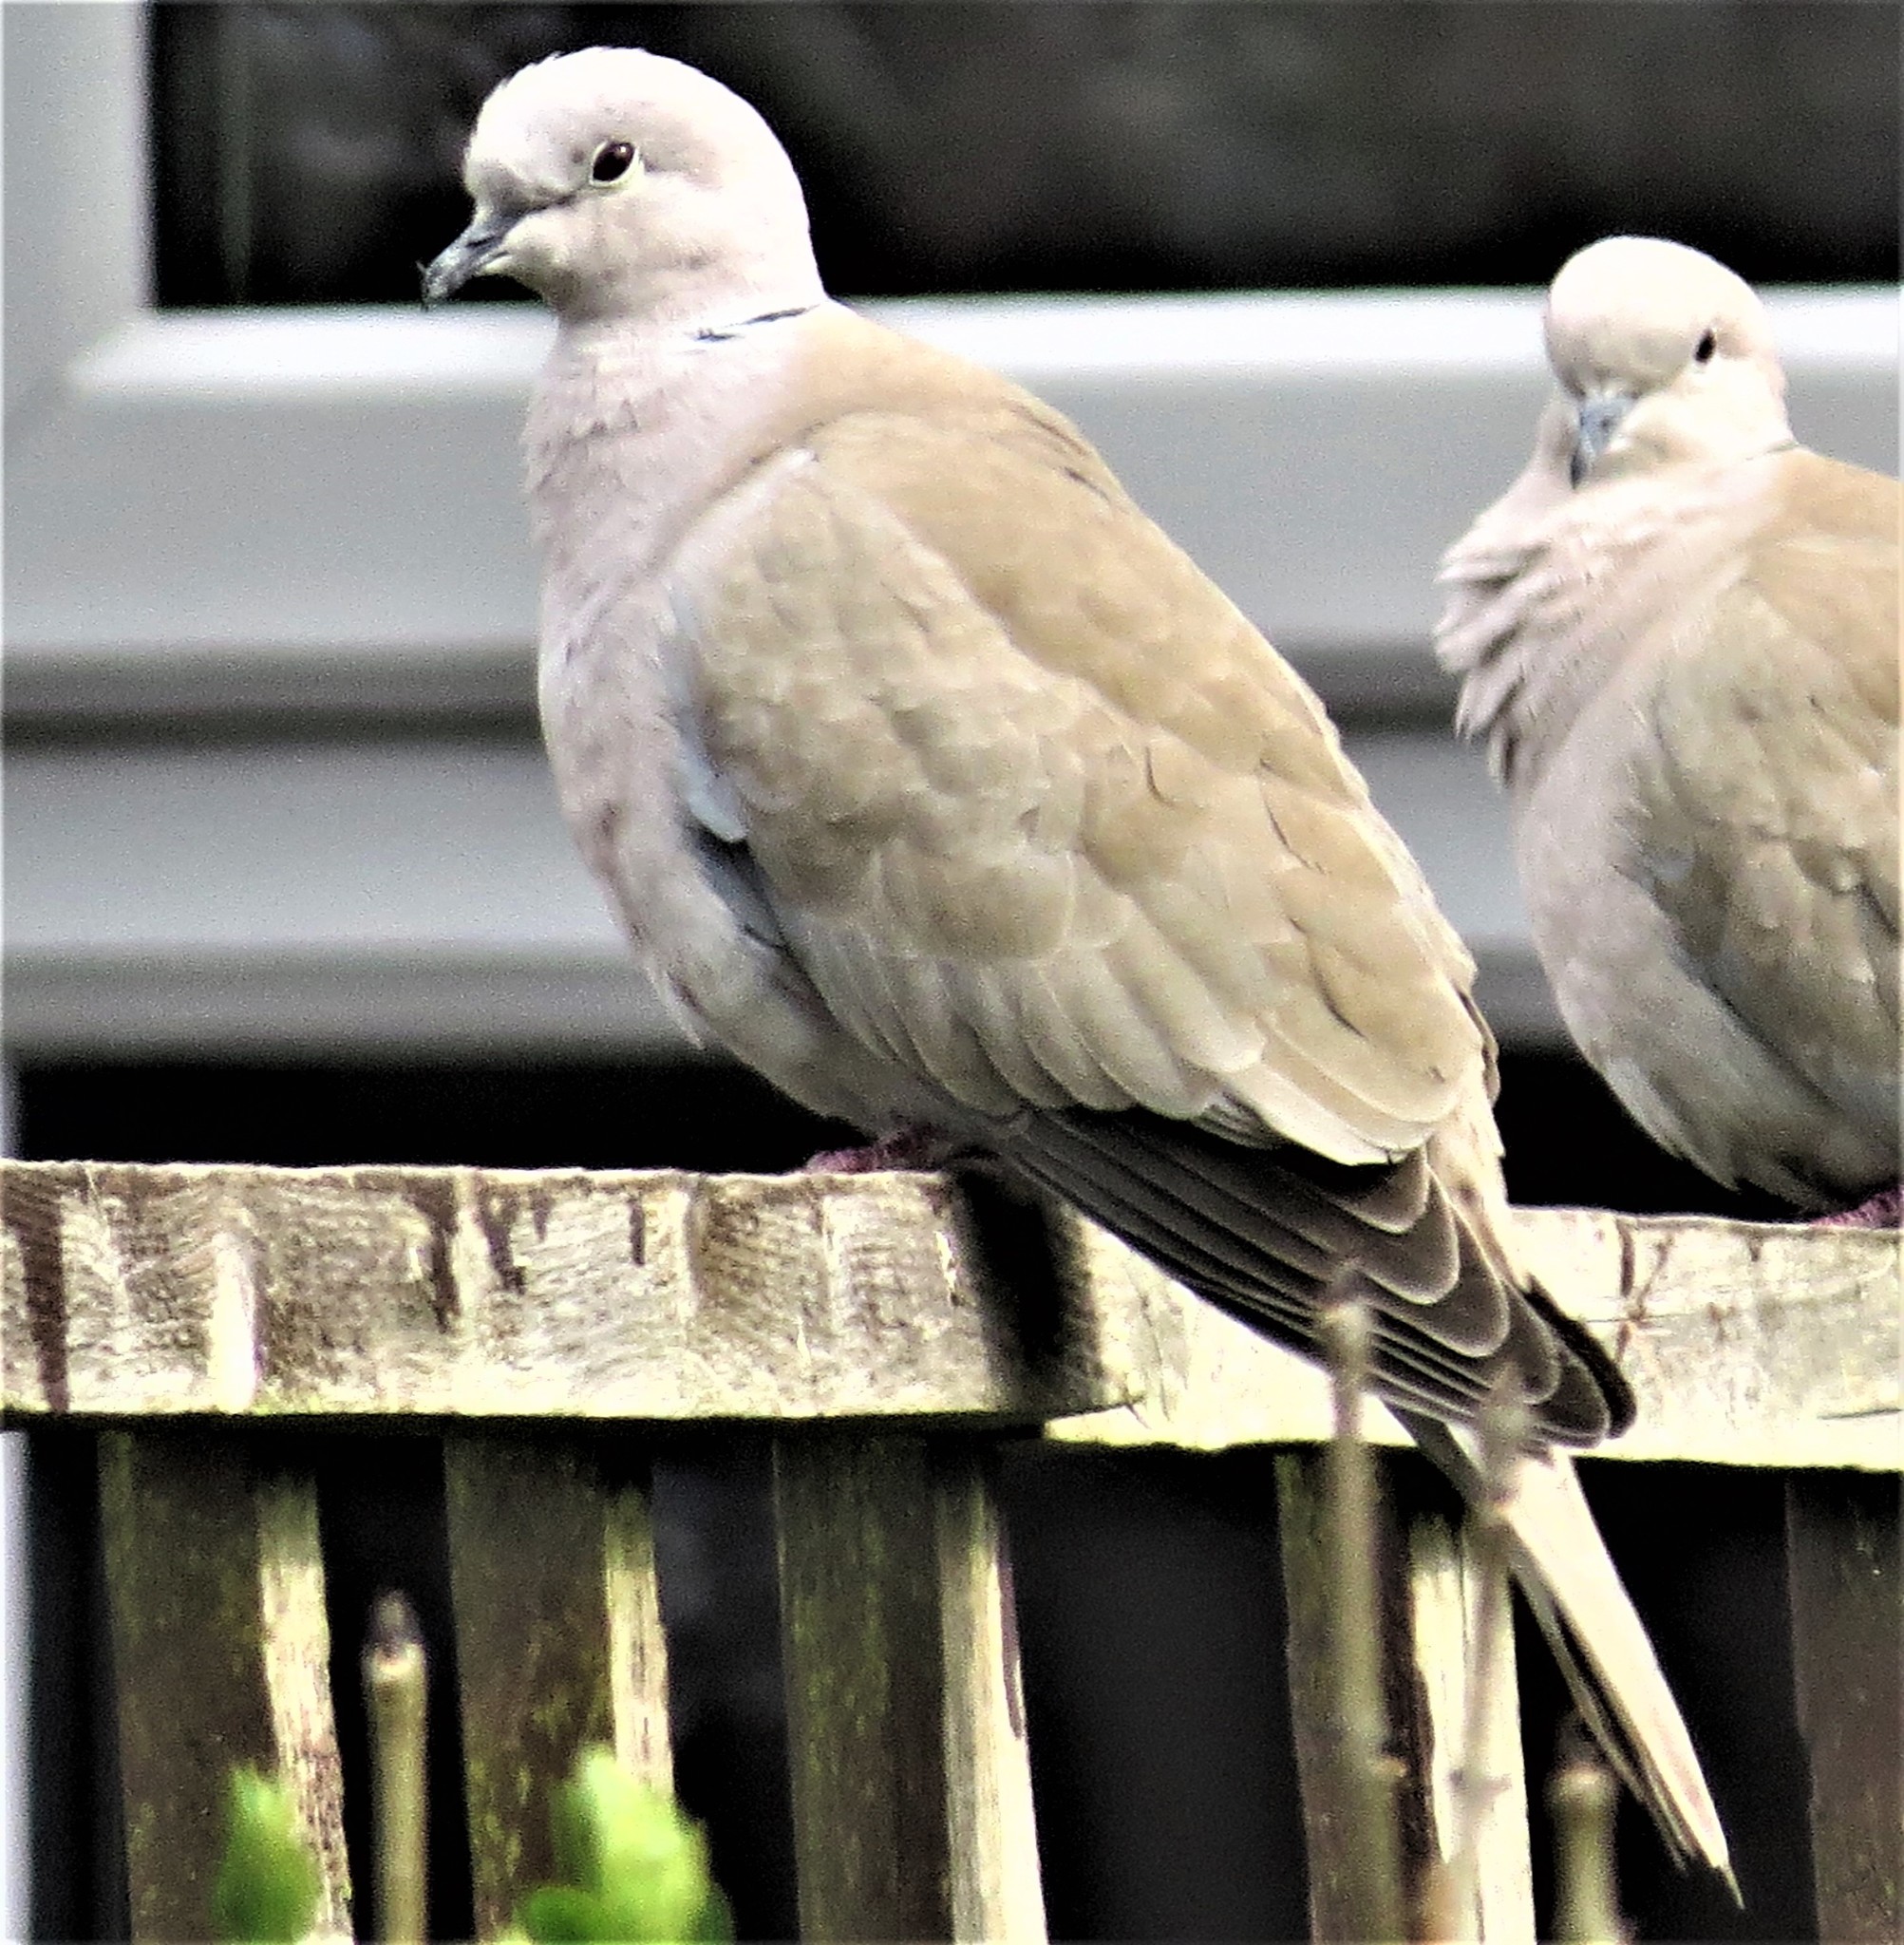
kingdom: Animalia
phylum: Chordata
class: Aves
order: Columbiformes
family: Columbidae
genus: Streptopelia
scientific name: Streptopelia decaocto
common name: Eurasian collared dove
